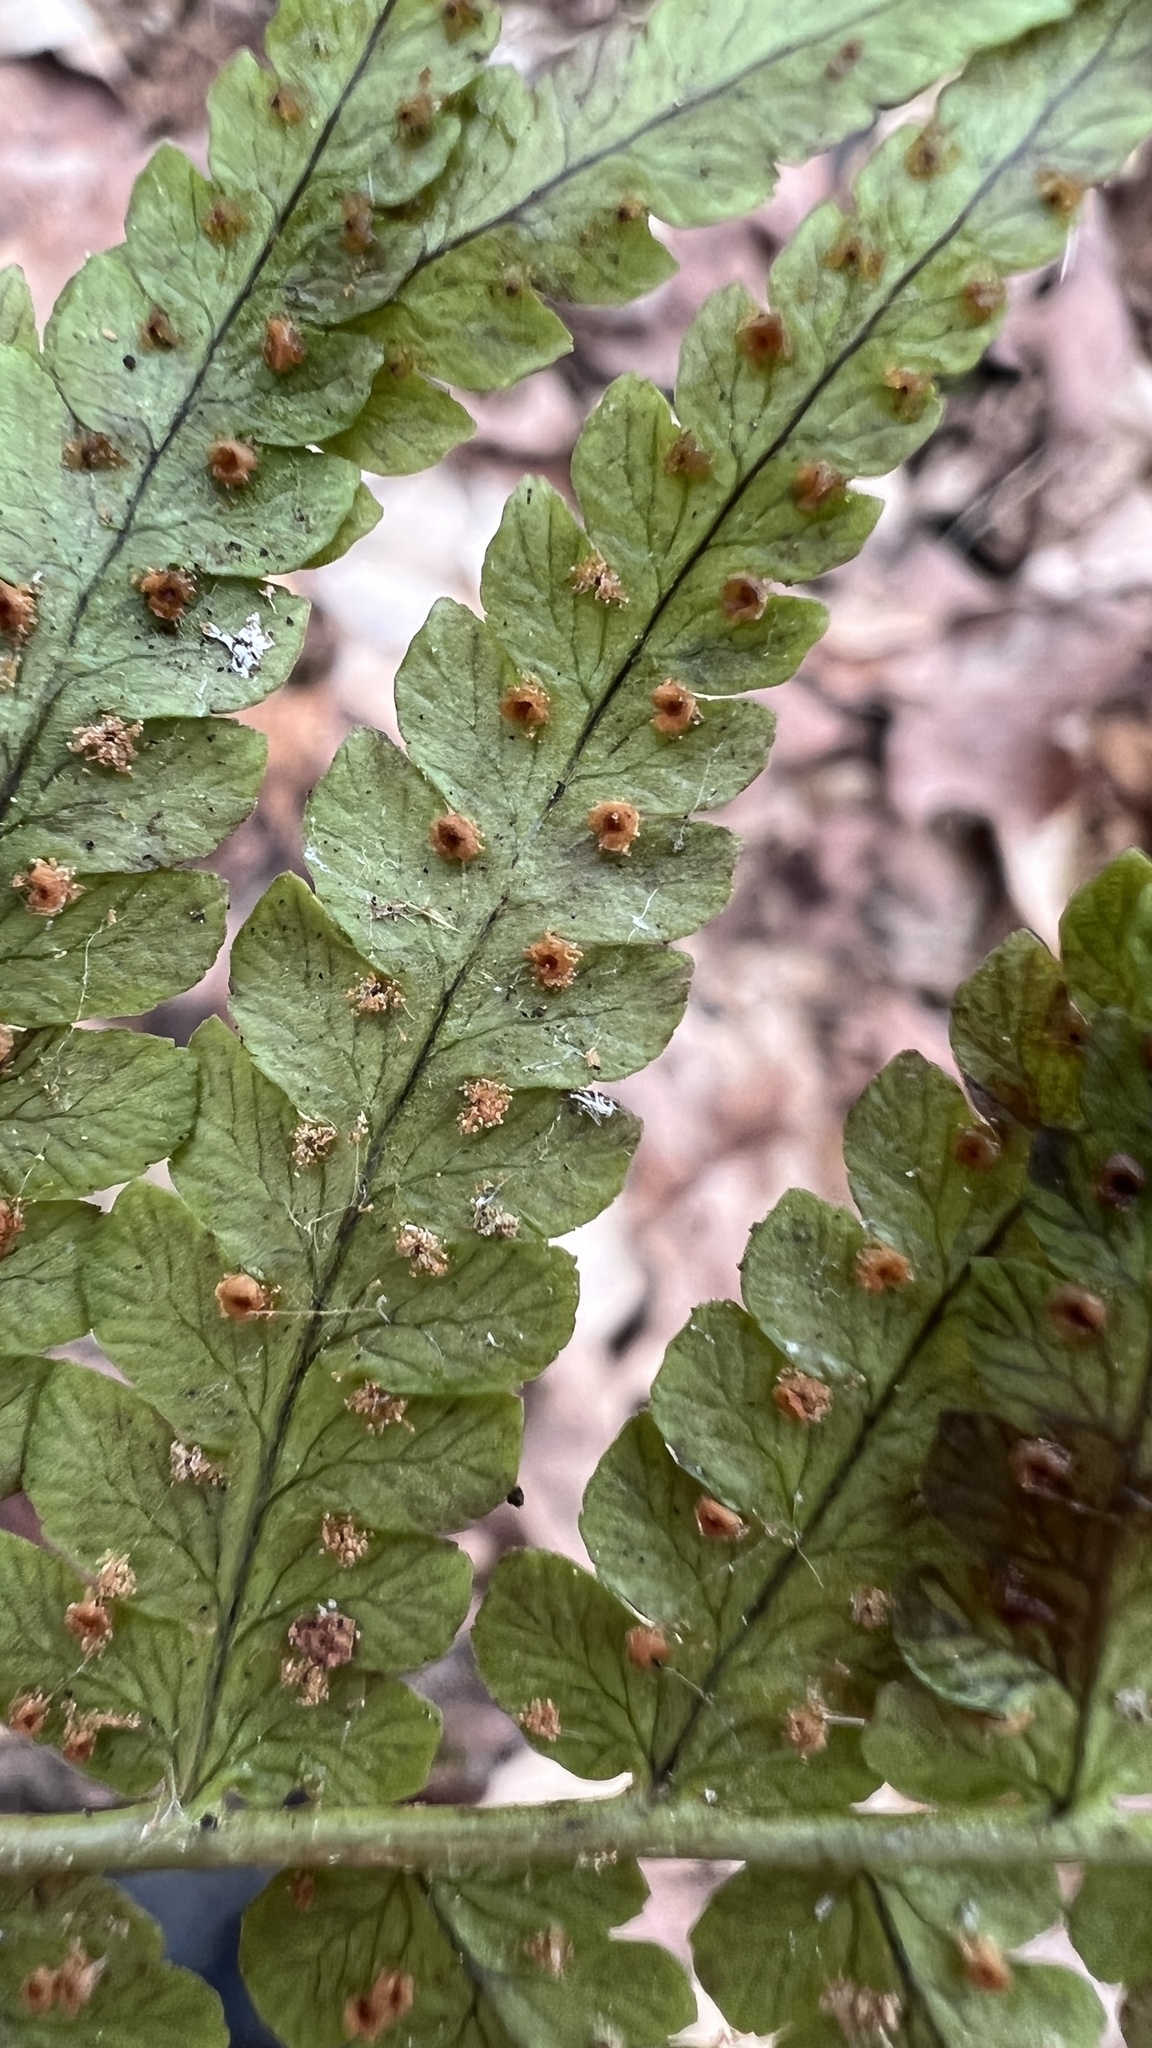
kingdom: Plantae
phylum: Tracheophyta
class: Polypodiopsida
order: Polypodiales
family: Dryopteridaceae
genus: Dryopteris
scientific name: Dryopteris marginalis
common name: Marginal wood fern
